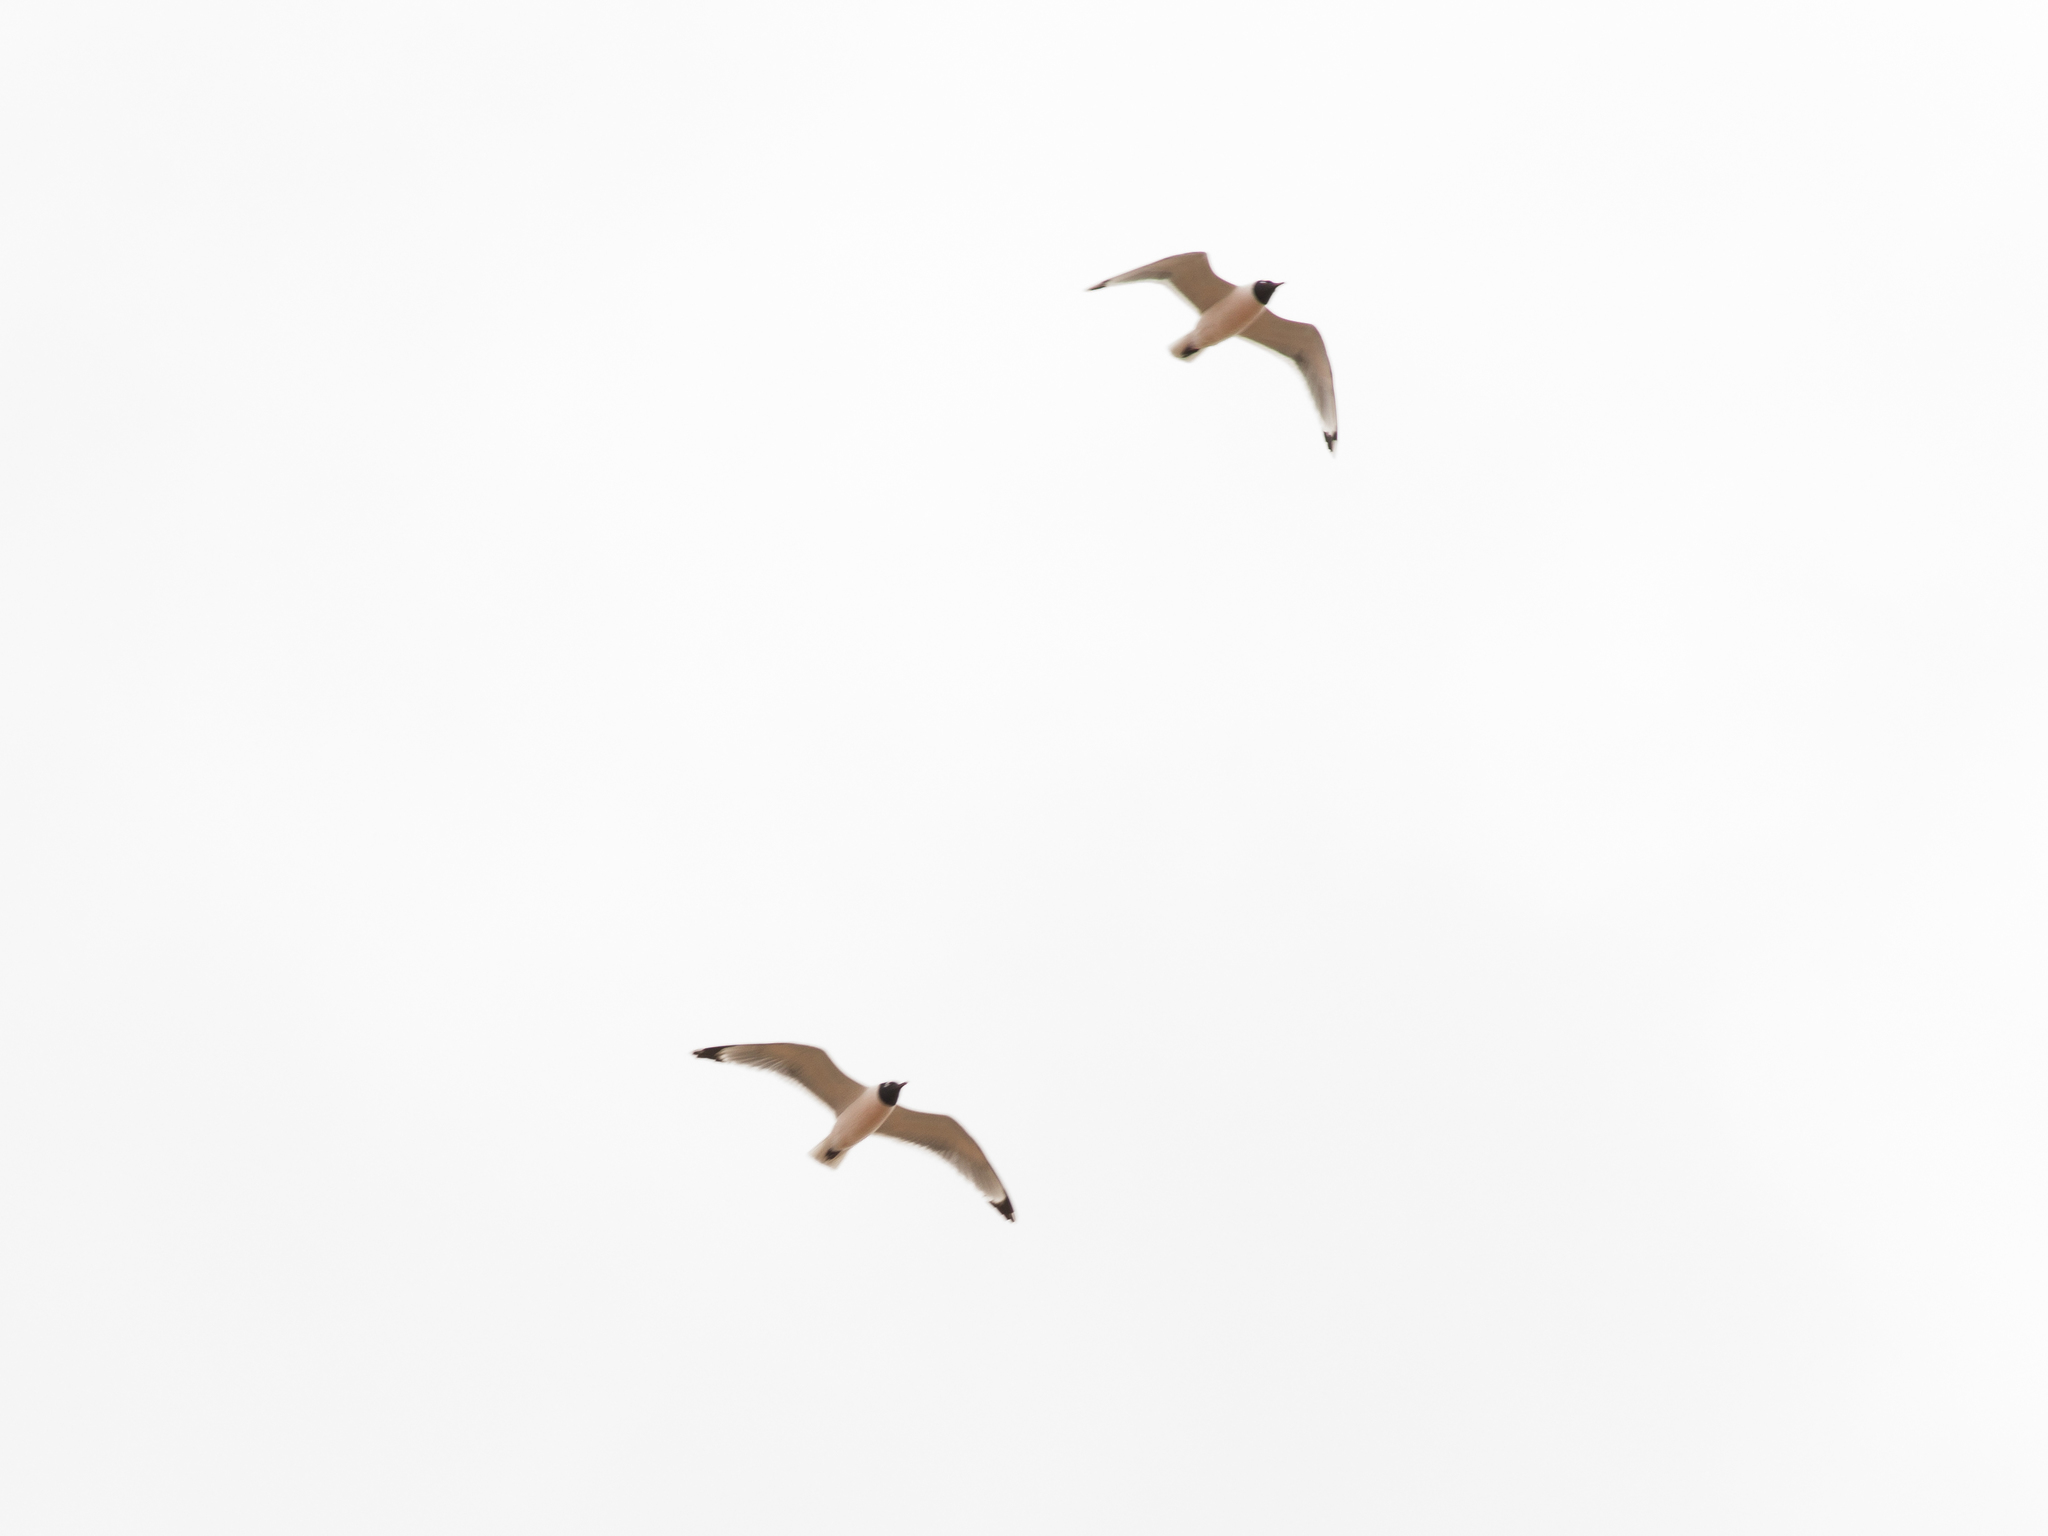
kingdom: Animalia
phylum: Chordata
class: Aves
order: Charadriiformes
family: Laridae
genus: Leucophaeus
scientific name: Leucophaeus pipixcan
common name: Franklin's gull
